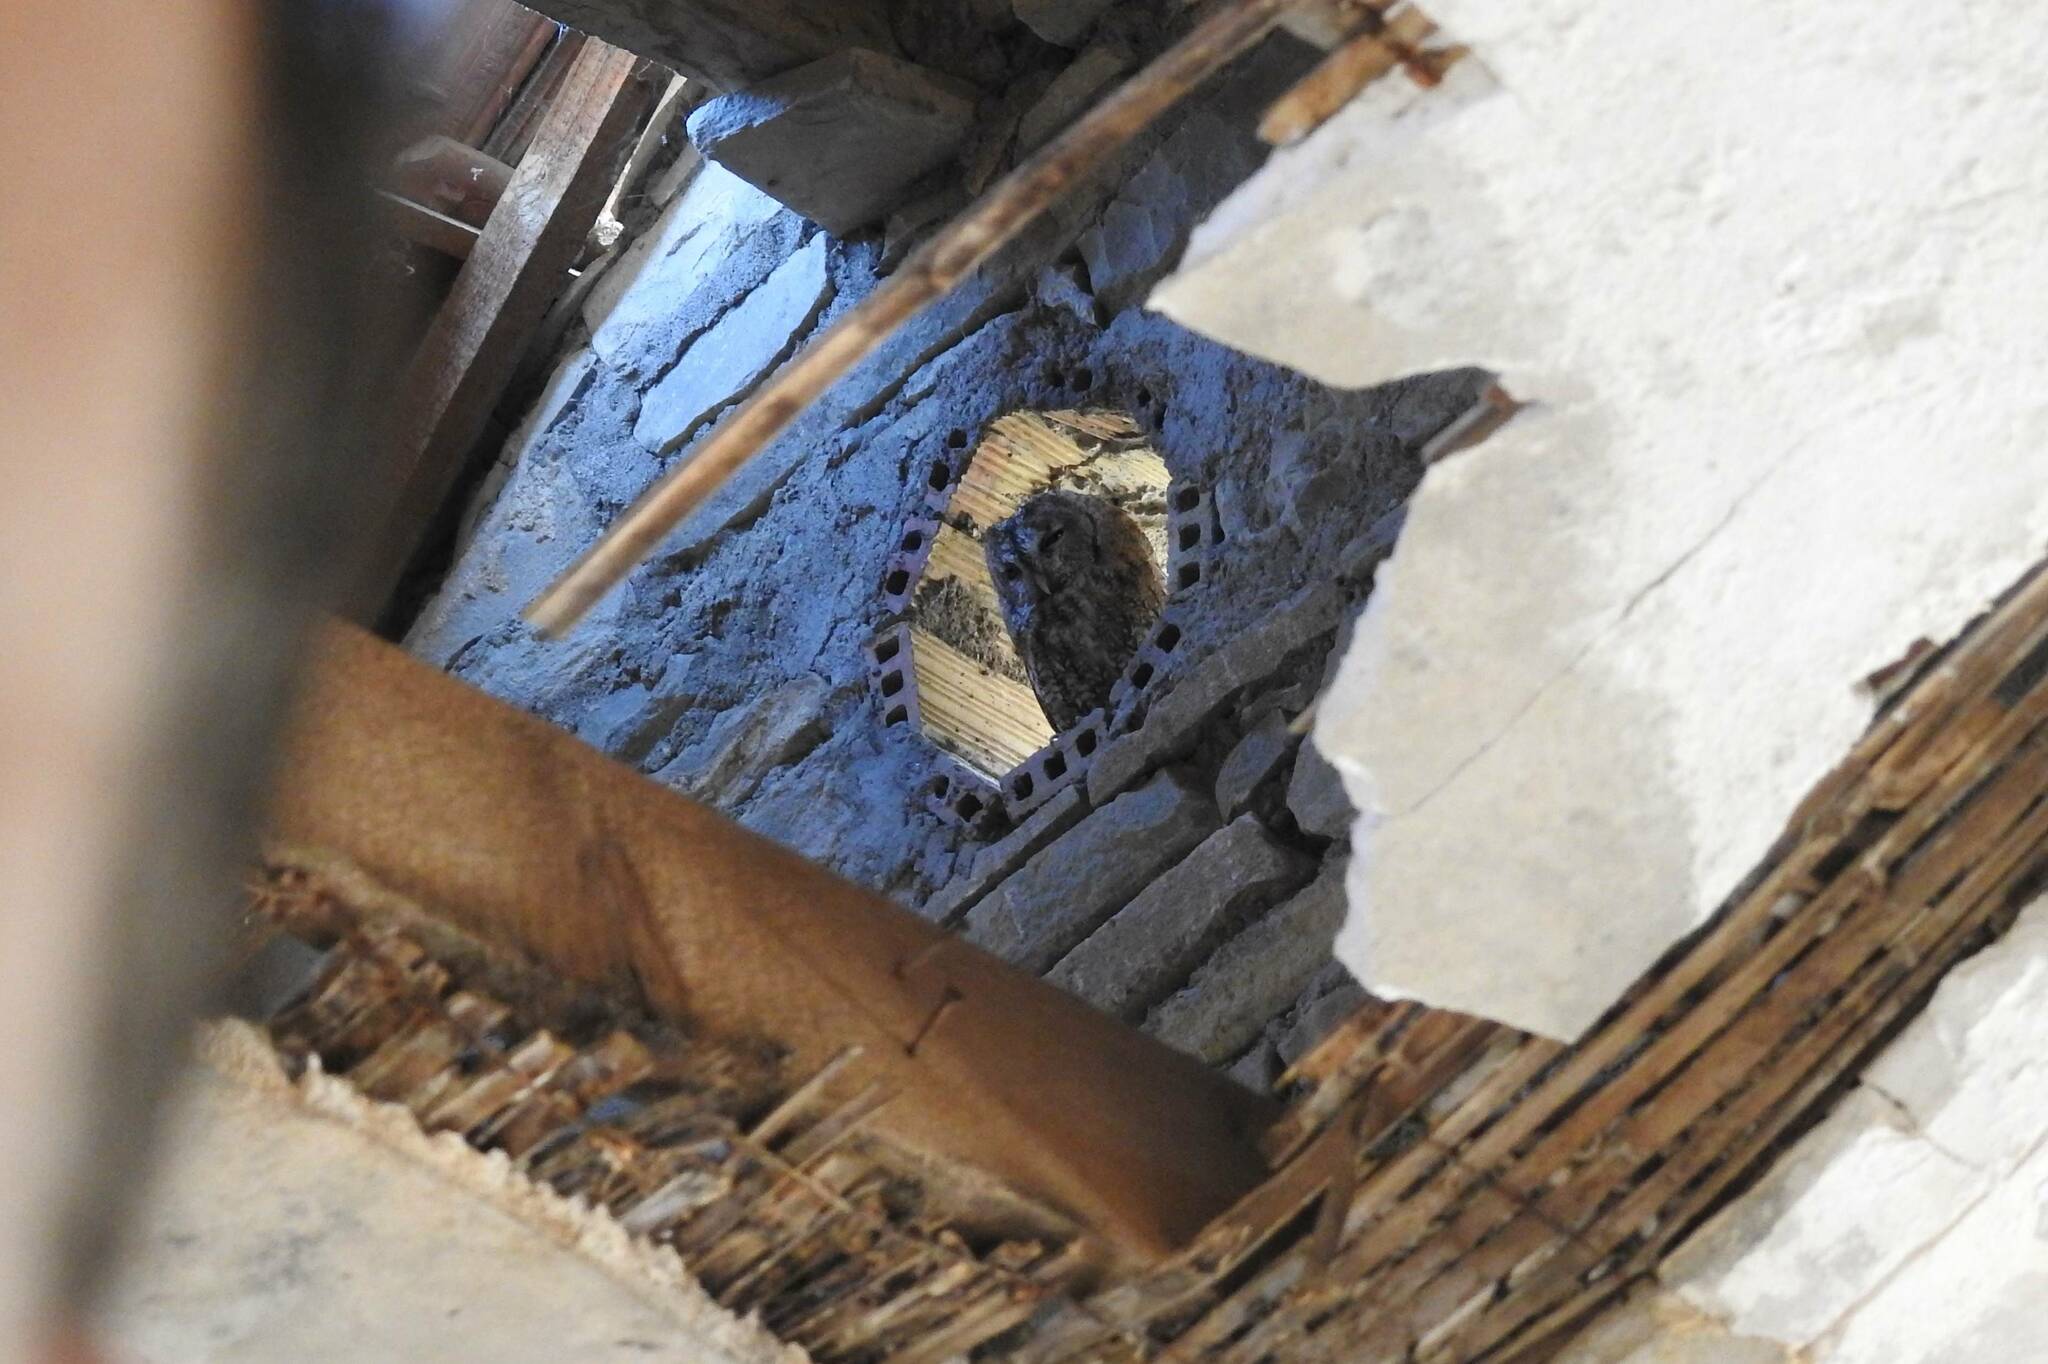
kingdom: Animalia
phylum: Chordata
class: Aves
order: Strigiformes
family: Strigidae
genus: Strix
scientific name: Strix aluco
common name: Tawny owl
